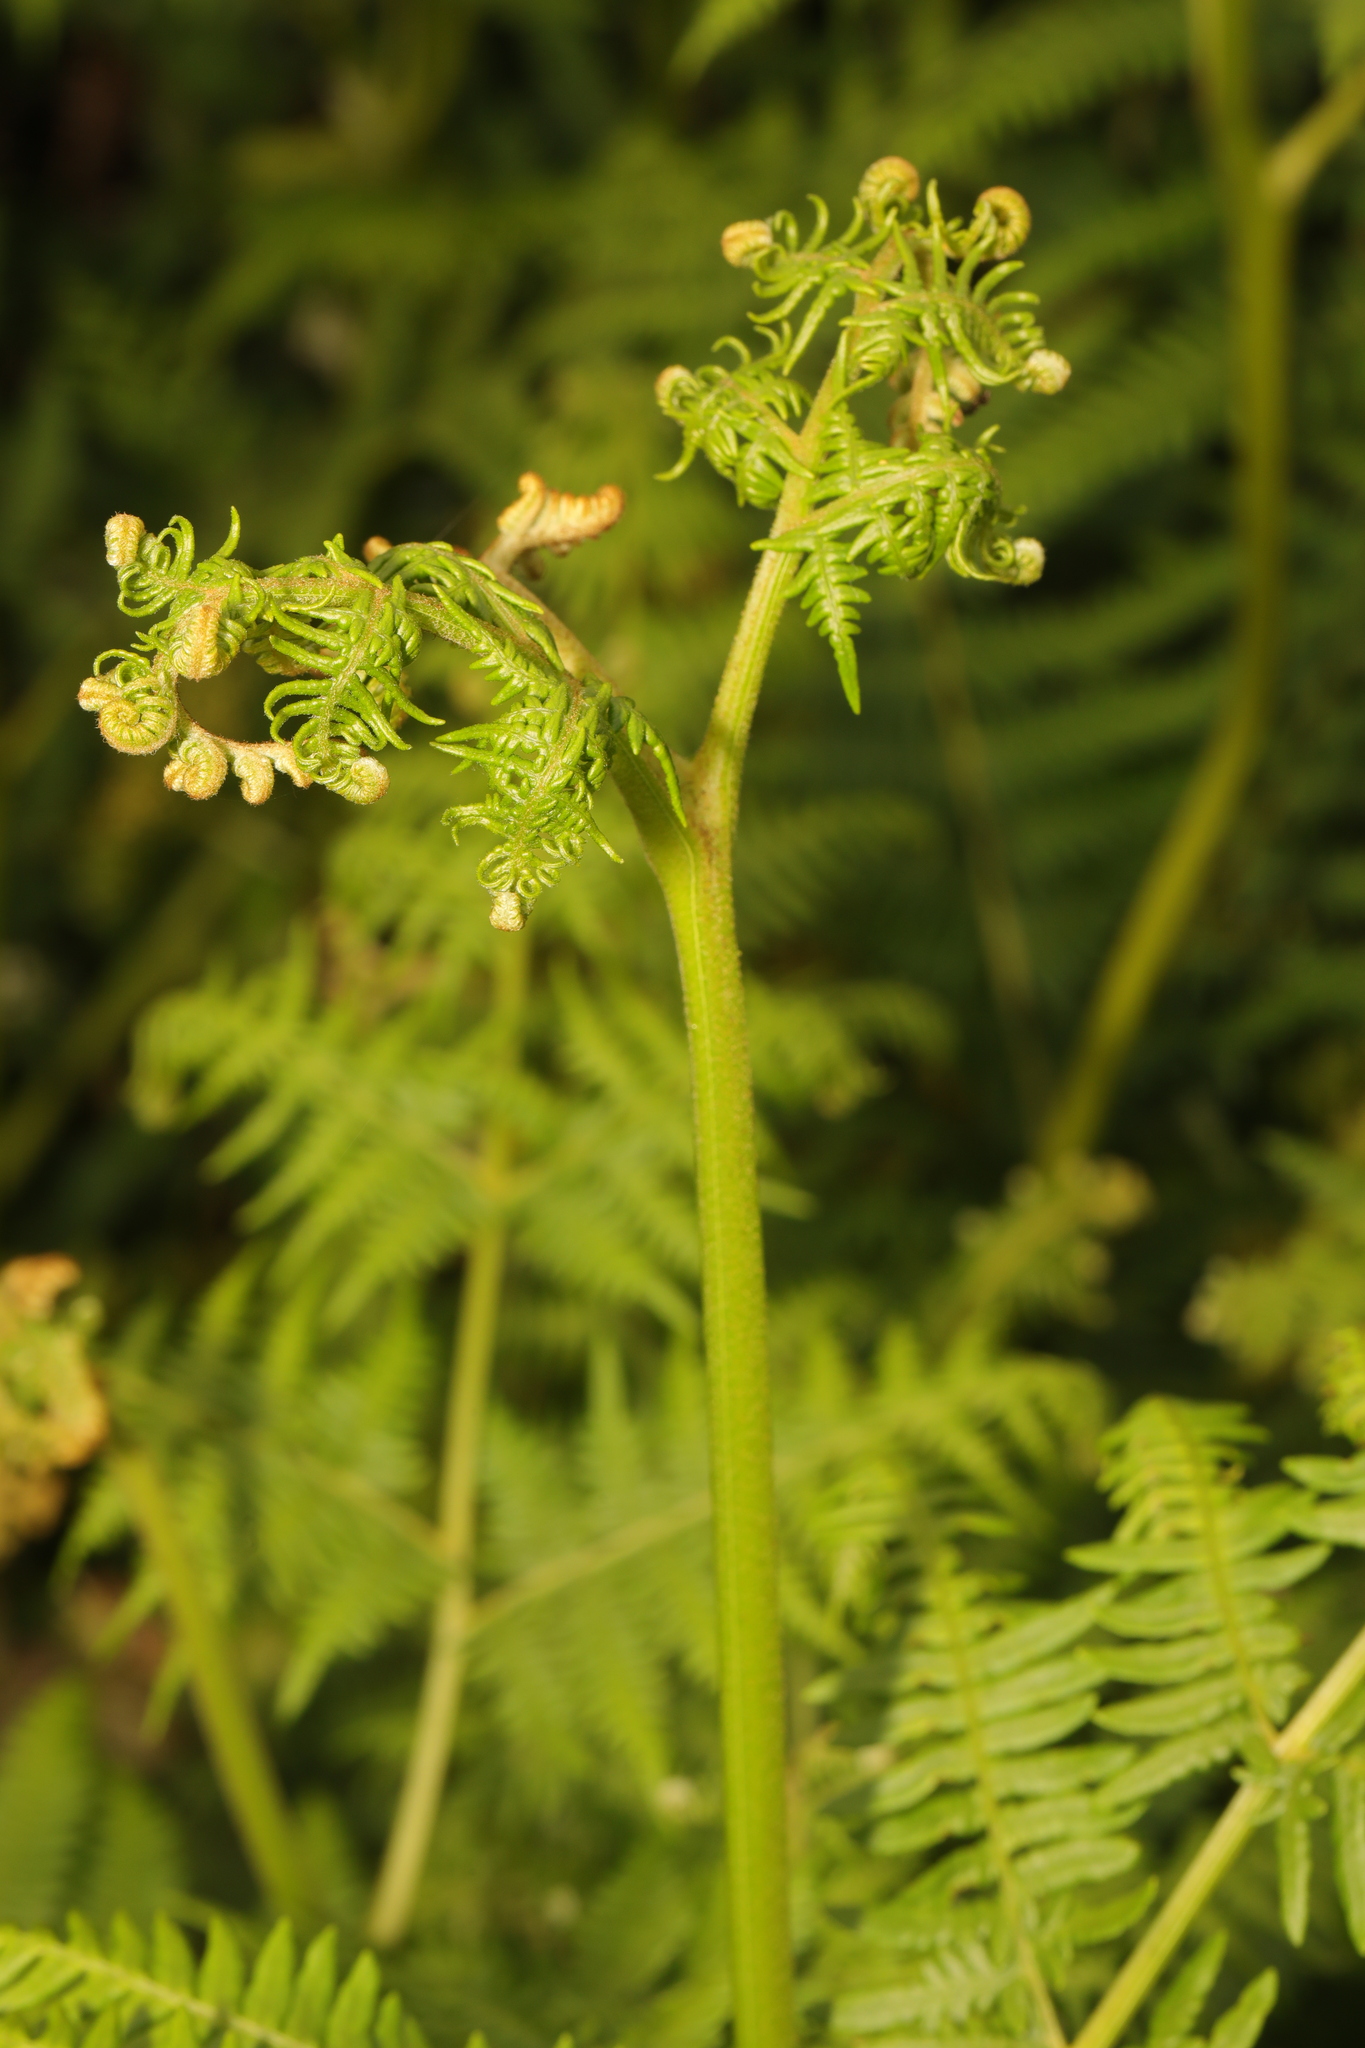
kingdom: Plantae
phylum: Tracheophyta
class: Polypodiopsida
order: Polypodiales
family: Dennstaedtiaceae
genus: Pteridium
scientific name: Pteridium aquilinum
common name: Bracken
